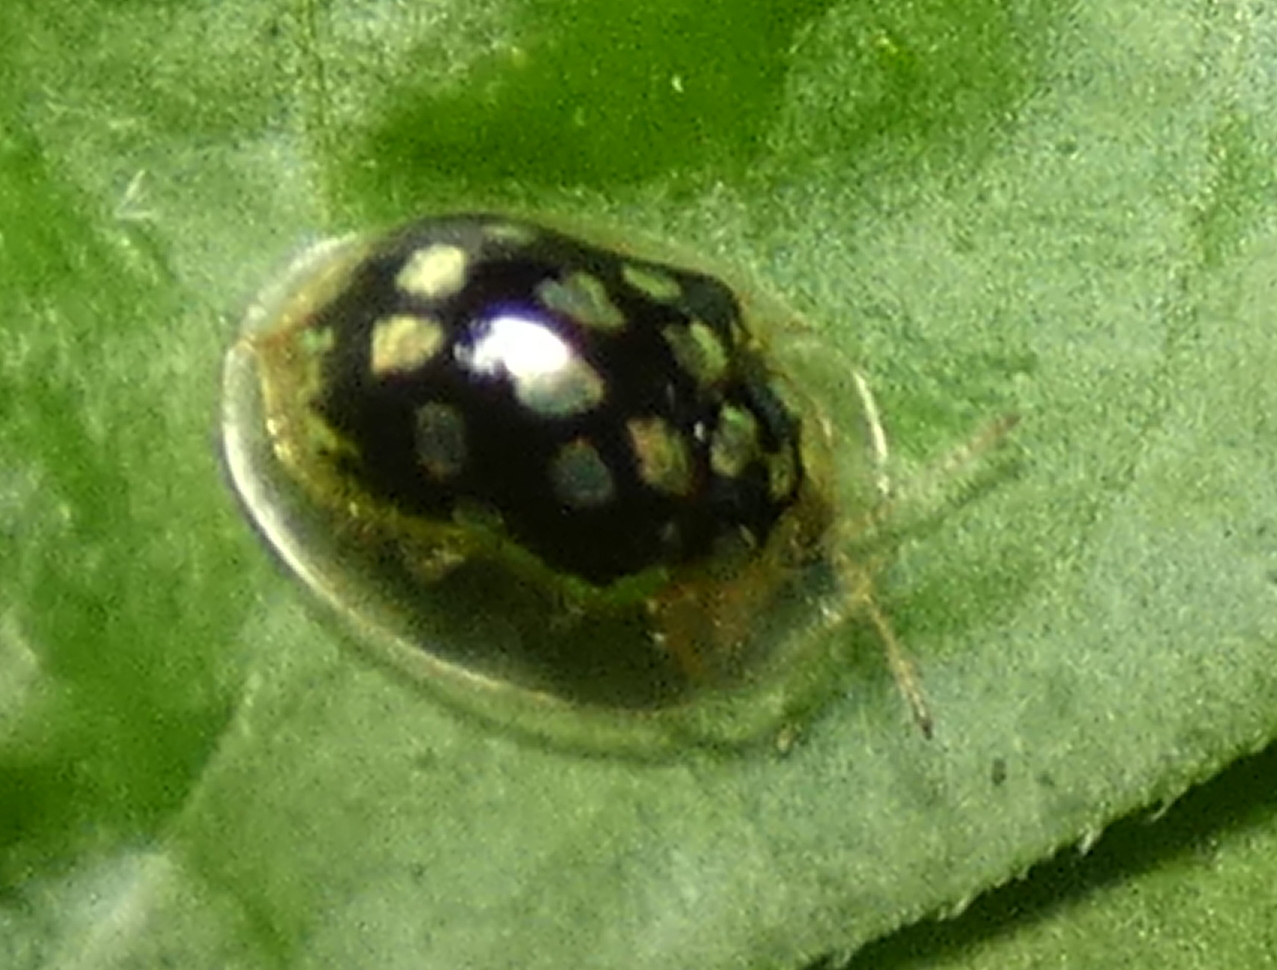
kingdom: Animalia
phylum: Arthropoda
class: Insecta
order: Coleoptera
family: Chrysomelidae
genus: Plagiometriona
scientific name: Plagiometriona microcera
